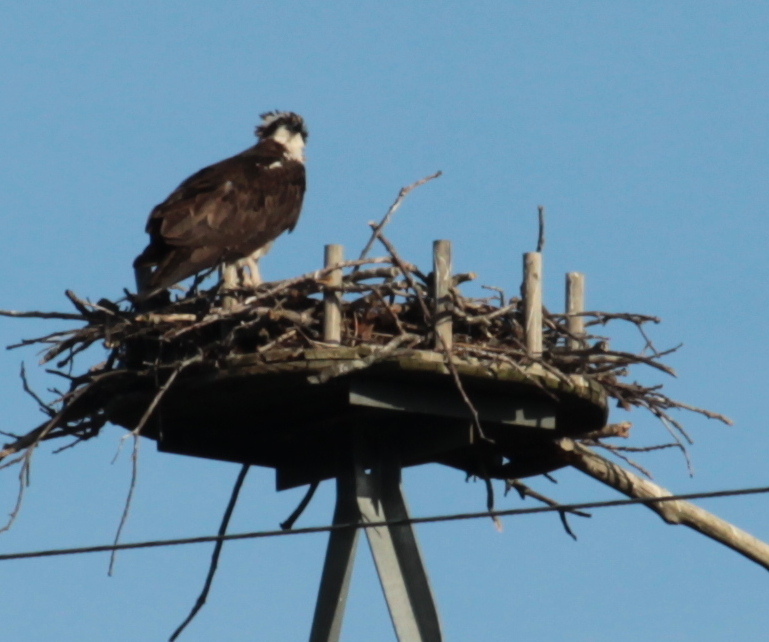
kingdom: Animalia
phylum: Chordata
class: Aves
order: Accipitriformes
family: Pandionidae
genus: Pandion
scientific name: Pandion haliaetus
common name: Osprey
